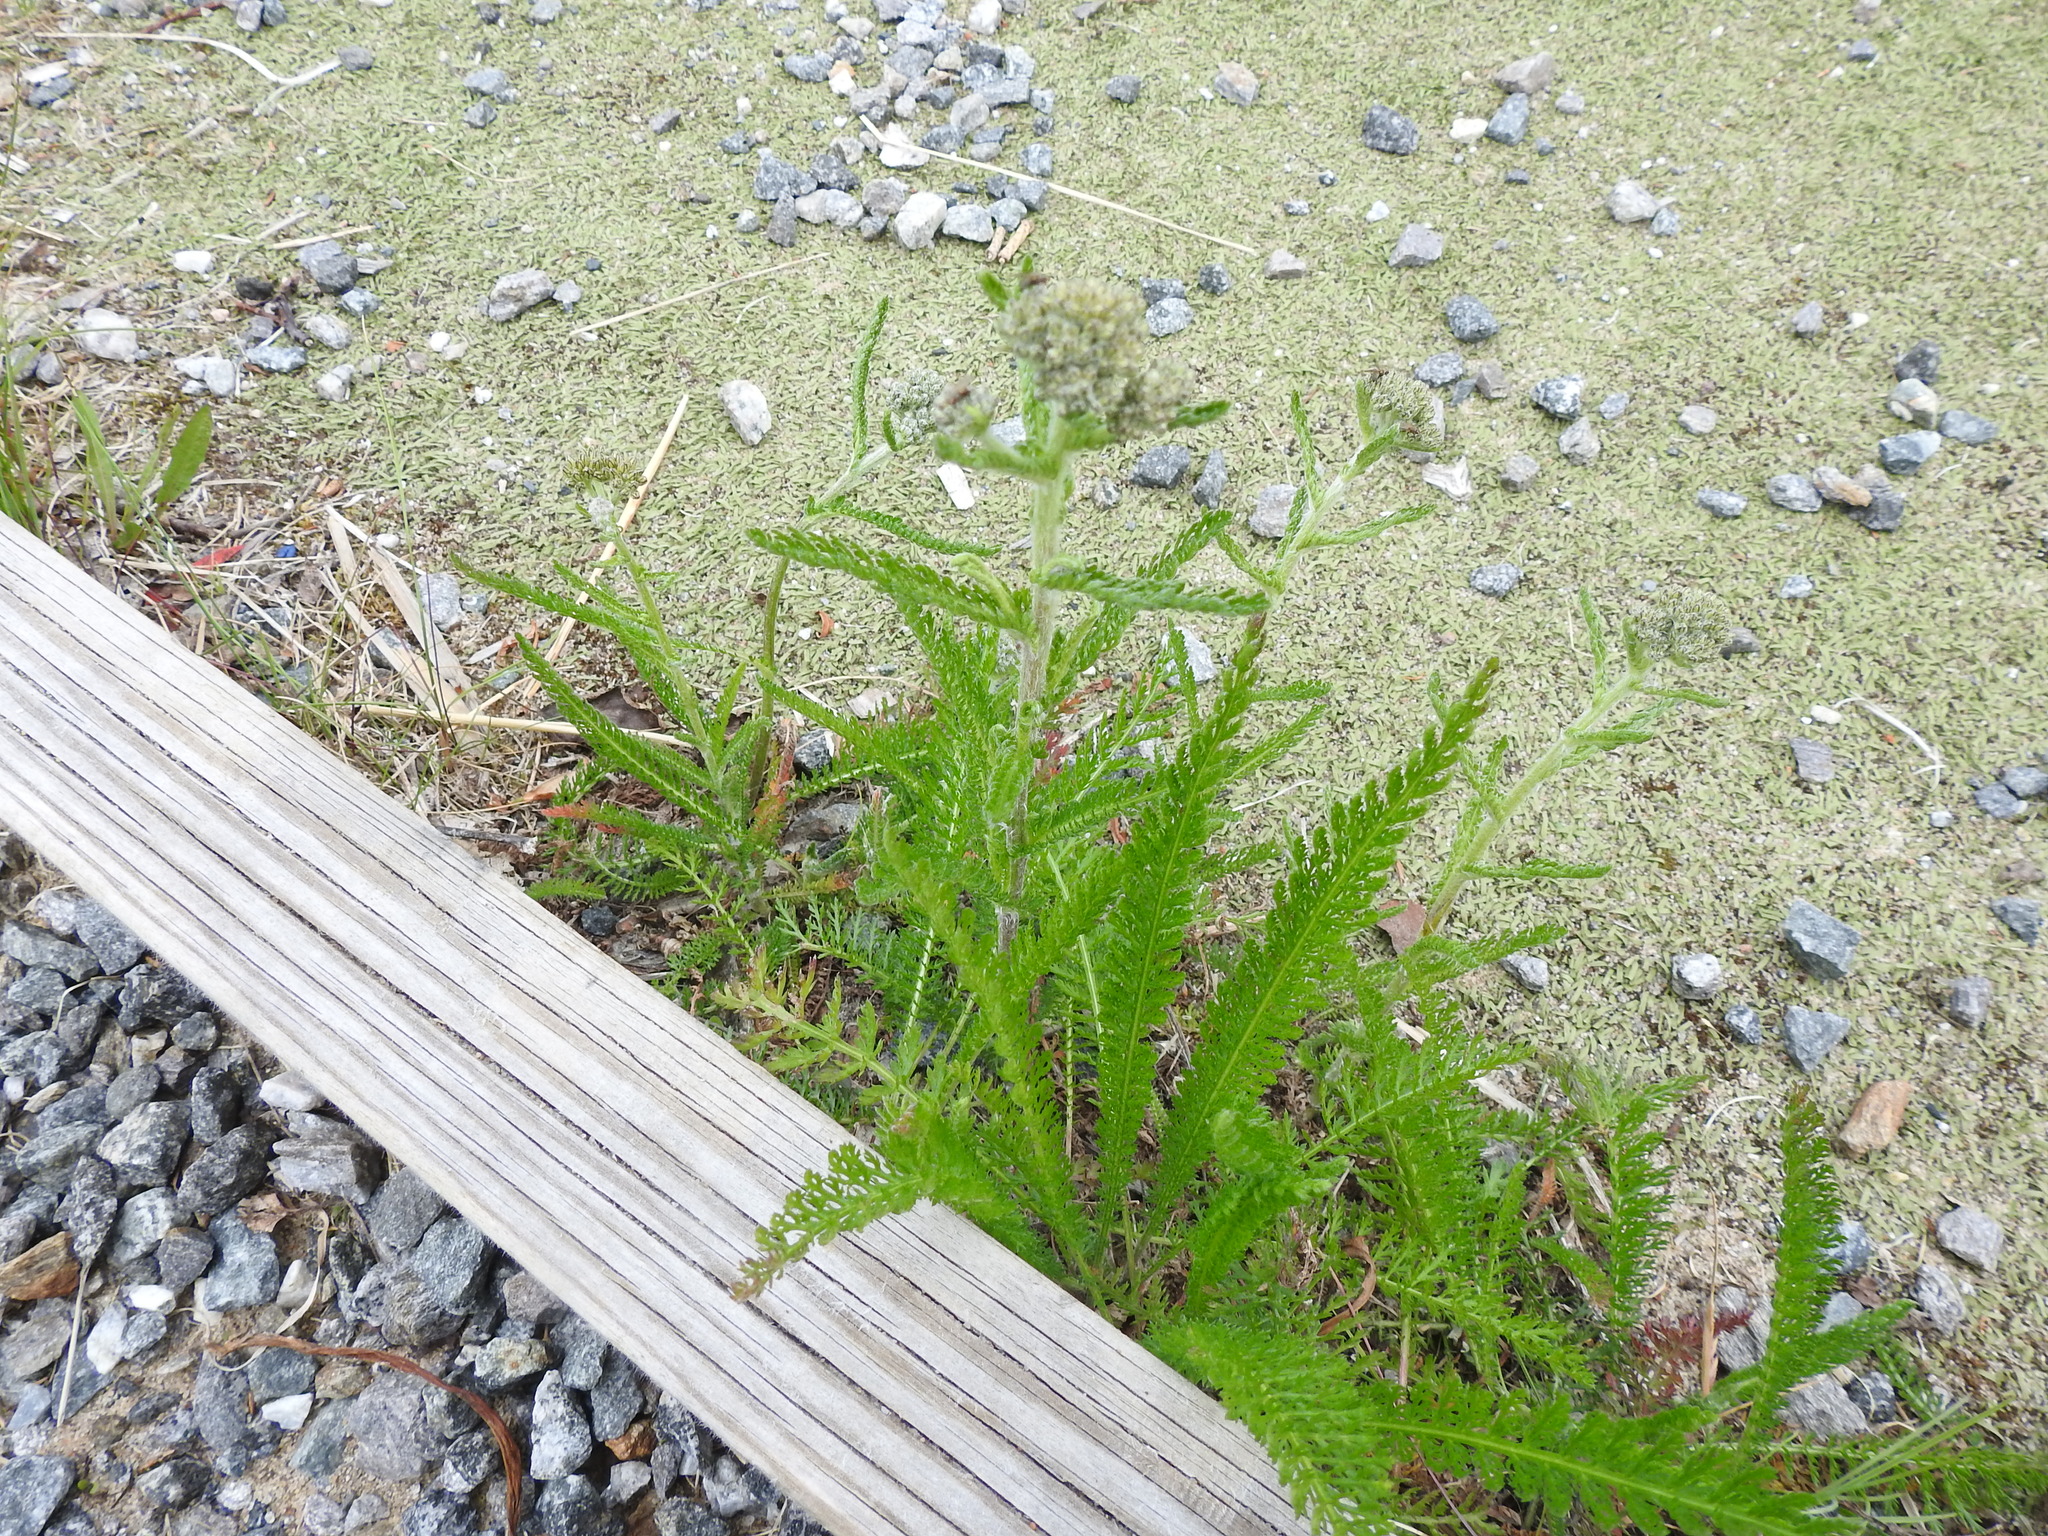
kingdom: Plantae
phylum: Tracheophyta
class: Magnoliopsida
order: Asterales
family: Asteraceae
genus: Achillea
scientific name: Achillea millefolium
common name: Yarrow
